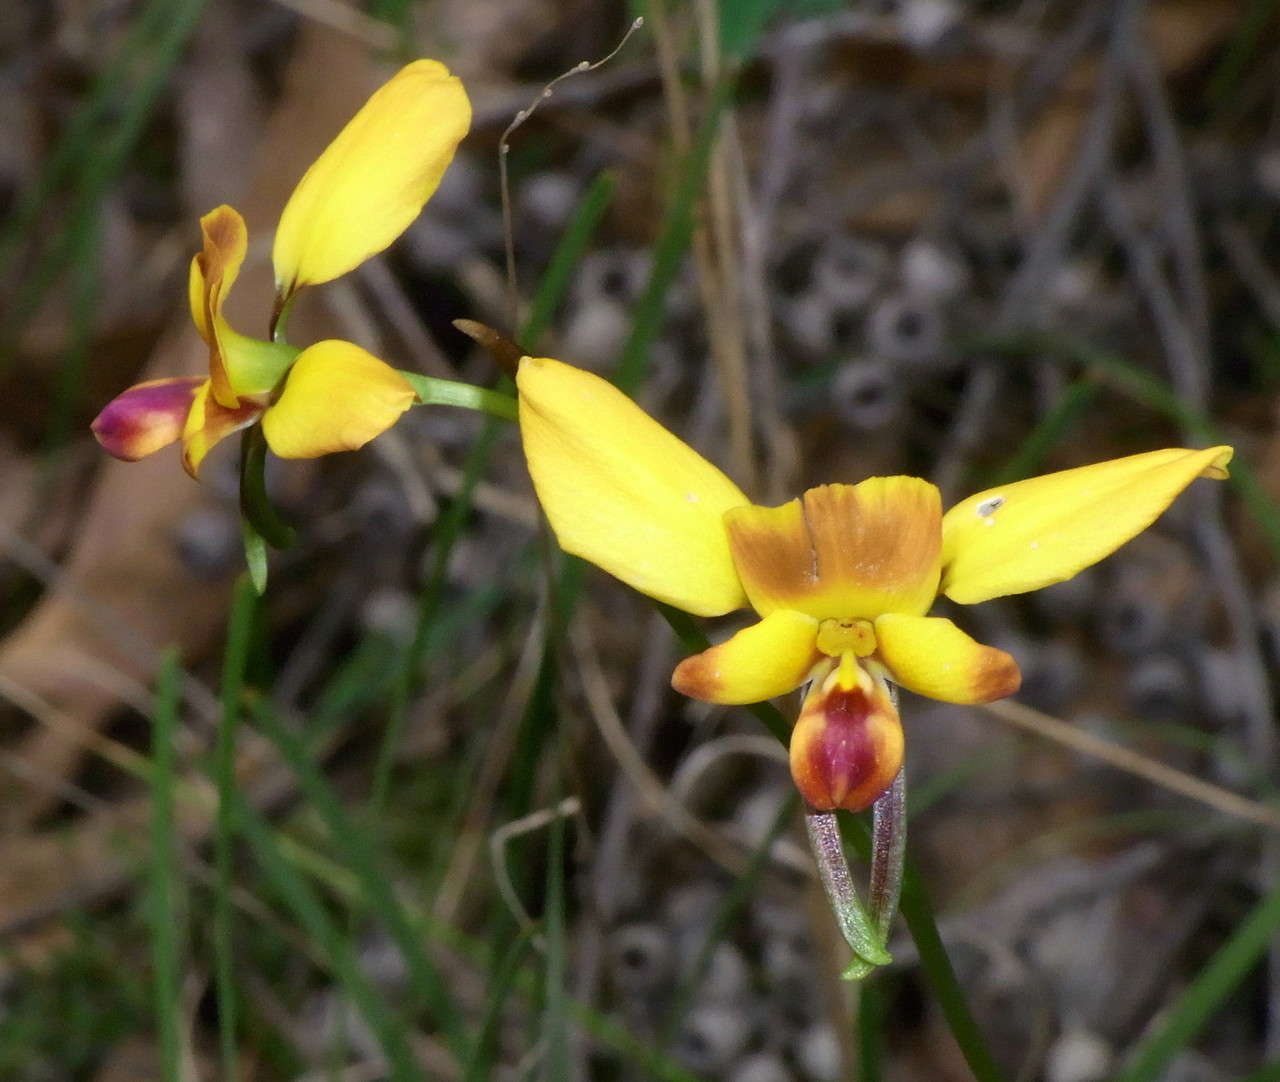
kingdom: Plantae
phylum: Tracheophyta
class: Liliopsida
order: Asparagales
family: Orchidaceae
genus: Diuris
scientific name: Diuris orientis
